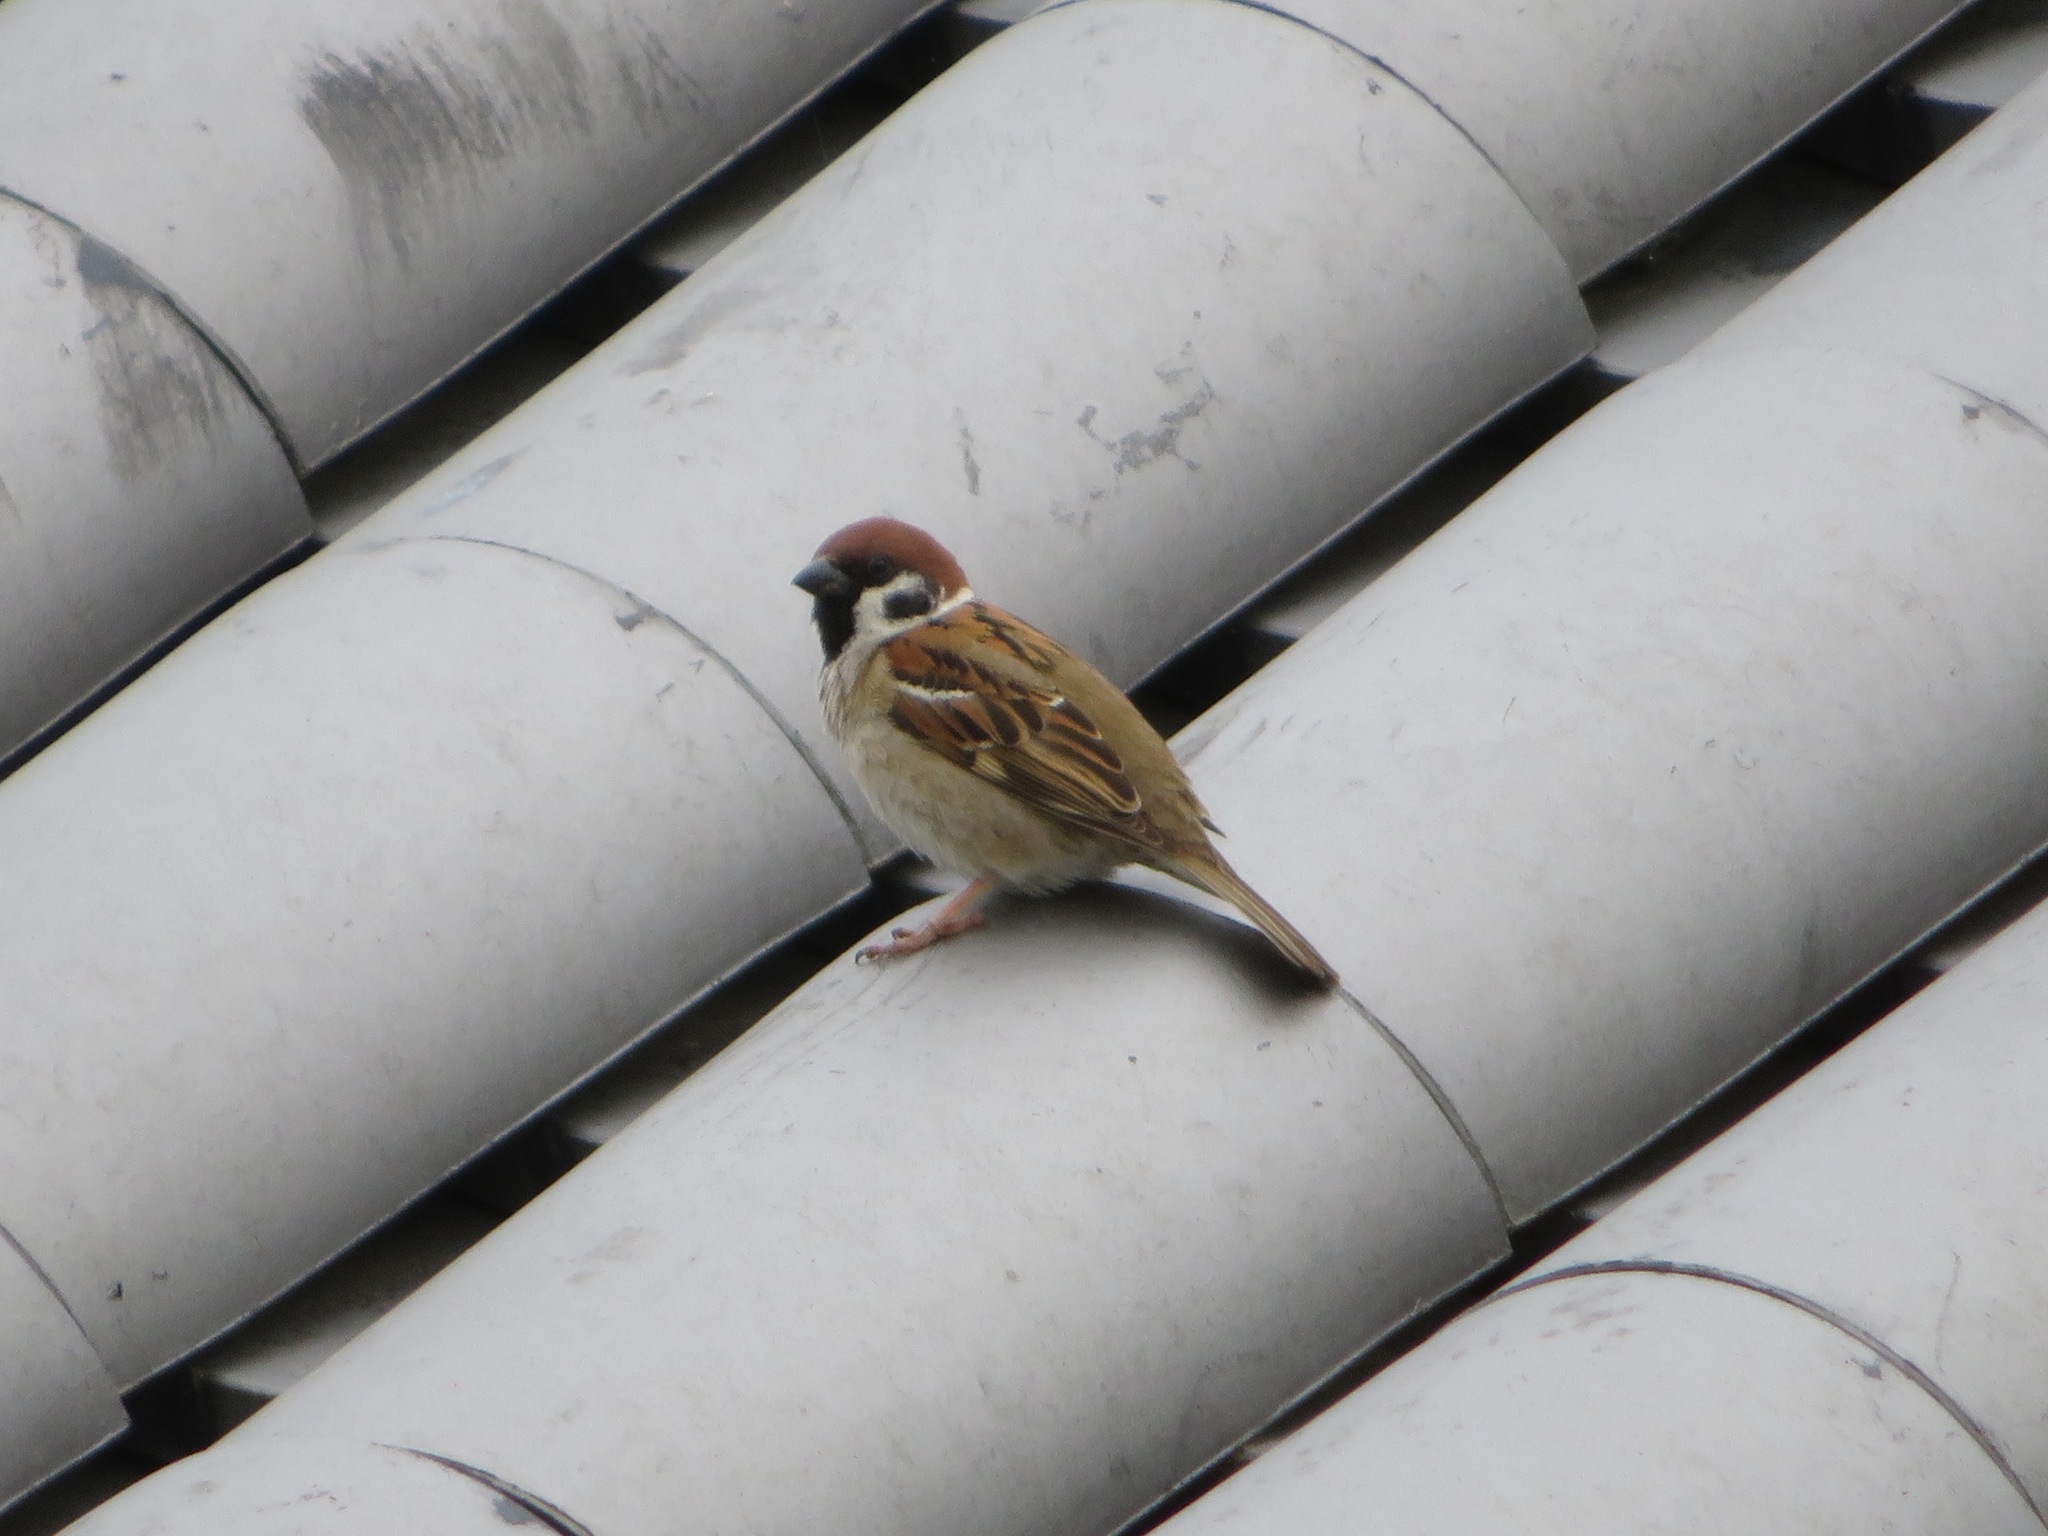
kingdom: Animalia
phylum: Chordata
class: Aves
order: Passeriformes
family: Passeridae
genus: Passer
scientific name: Passer montanus
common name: Eurasian tree sparrow
